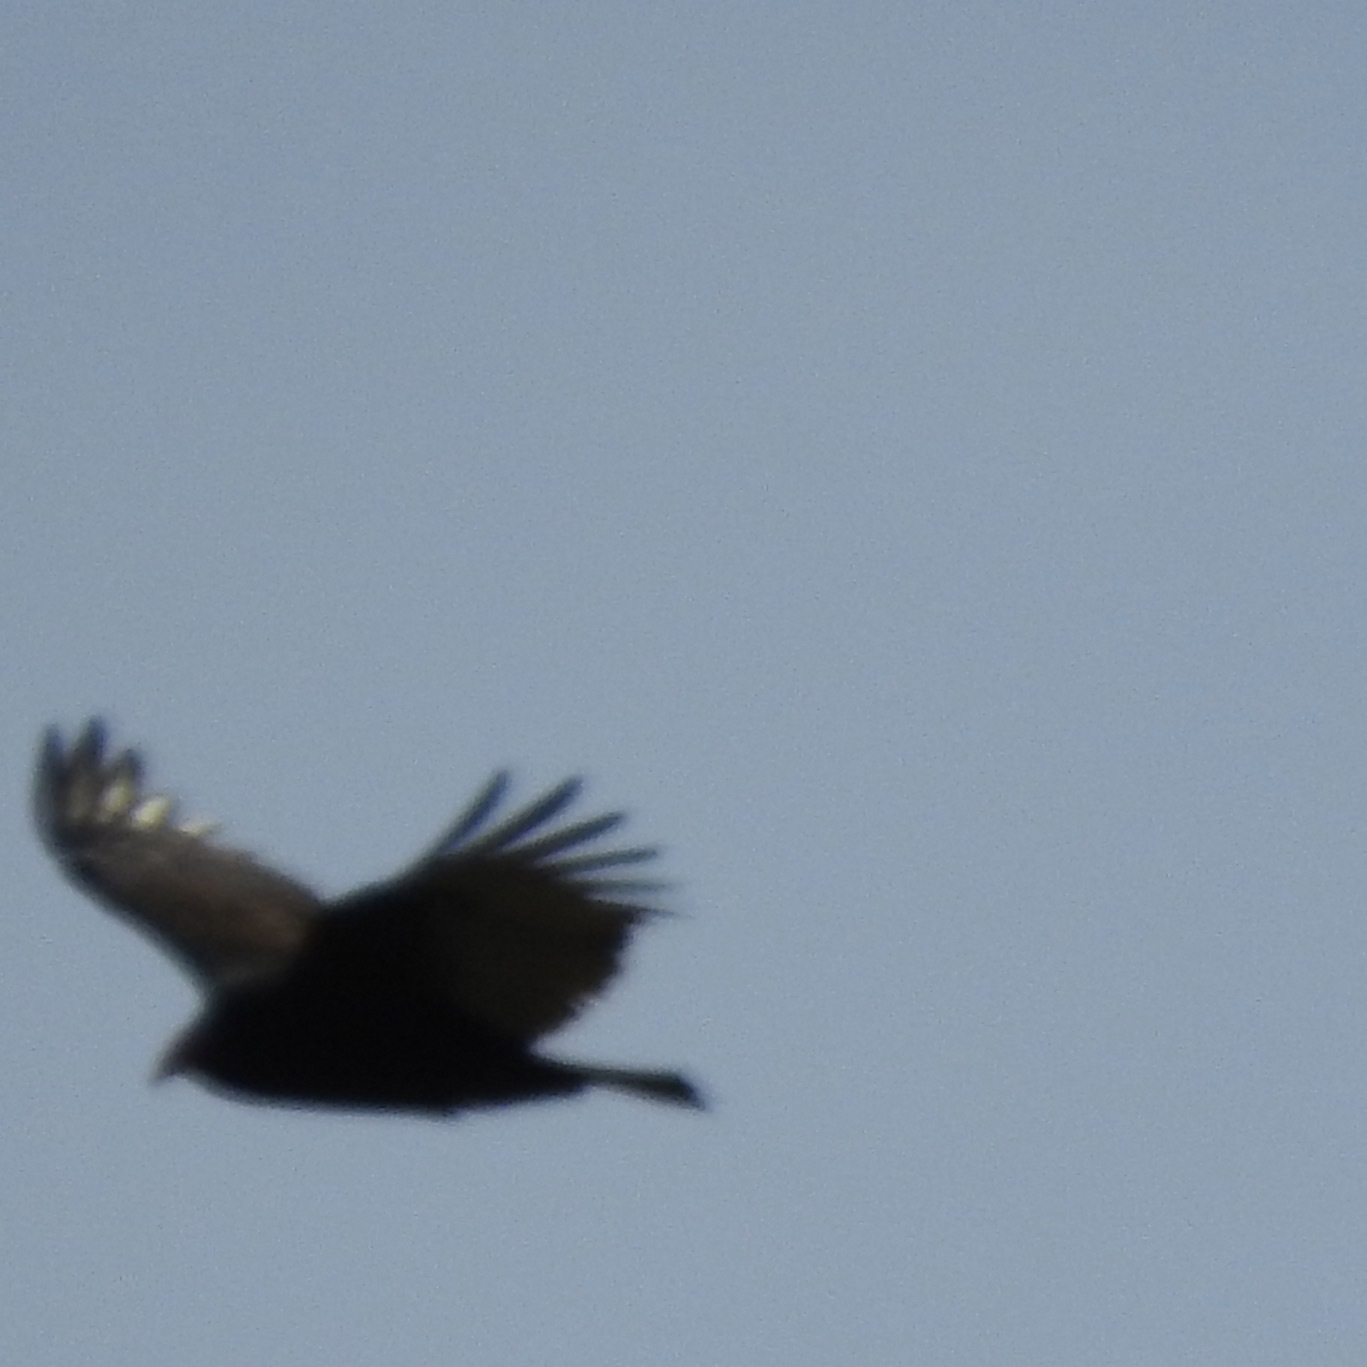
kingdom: Animalia
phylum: Chordata
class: Aves
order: Accipitriformes
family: Cathartidae
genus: Cathartes
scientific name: Cathartes aura
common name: Turkey vulture
